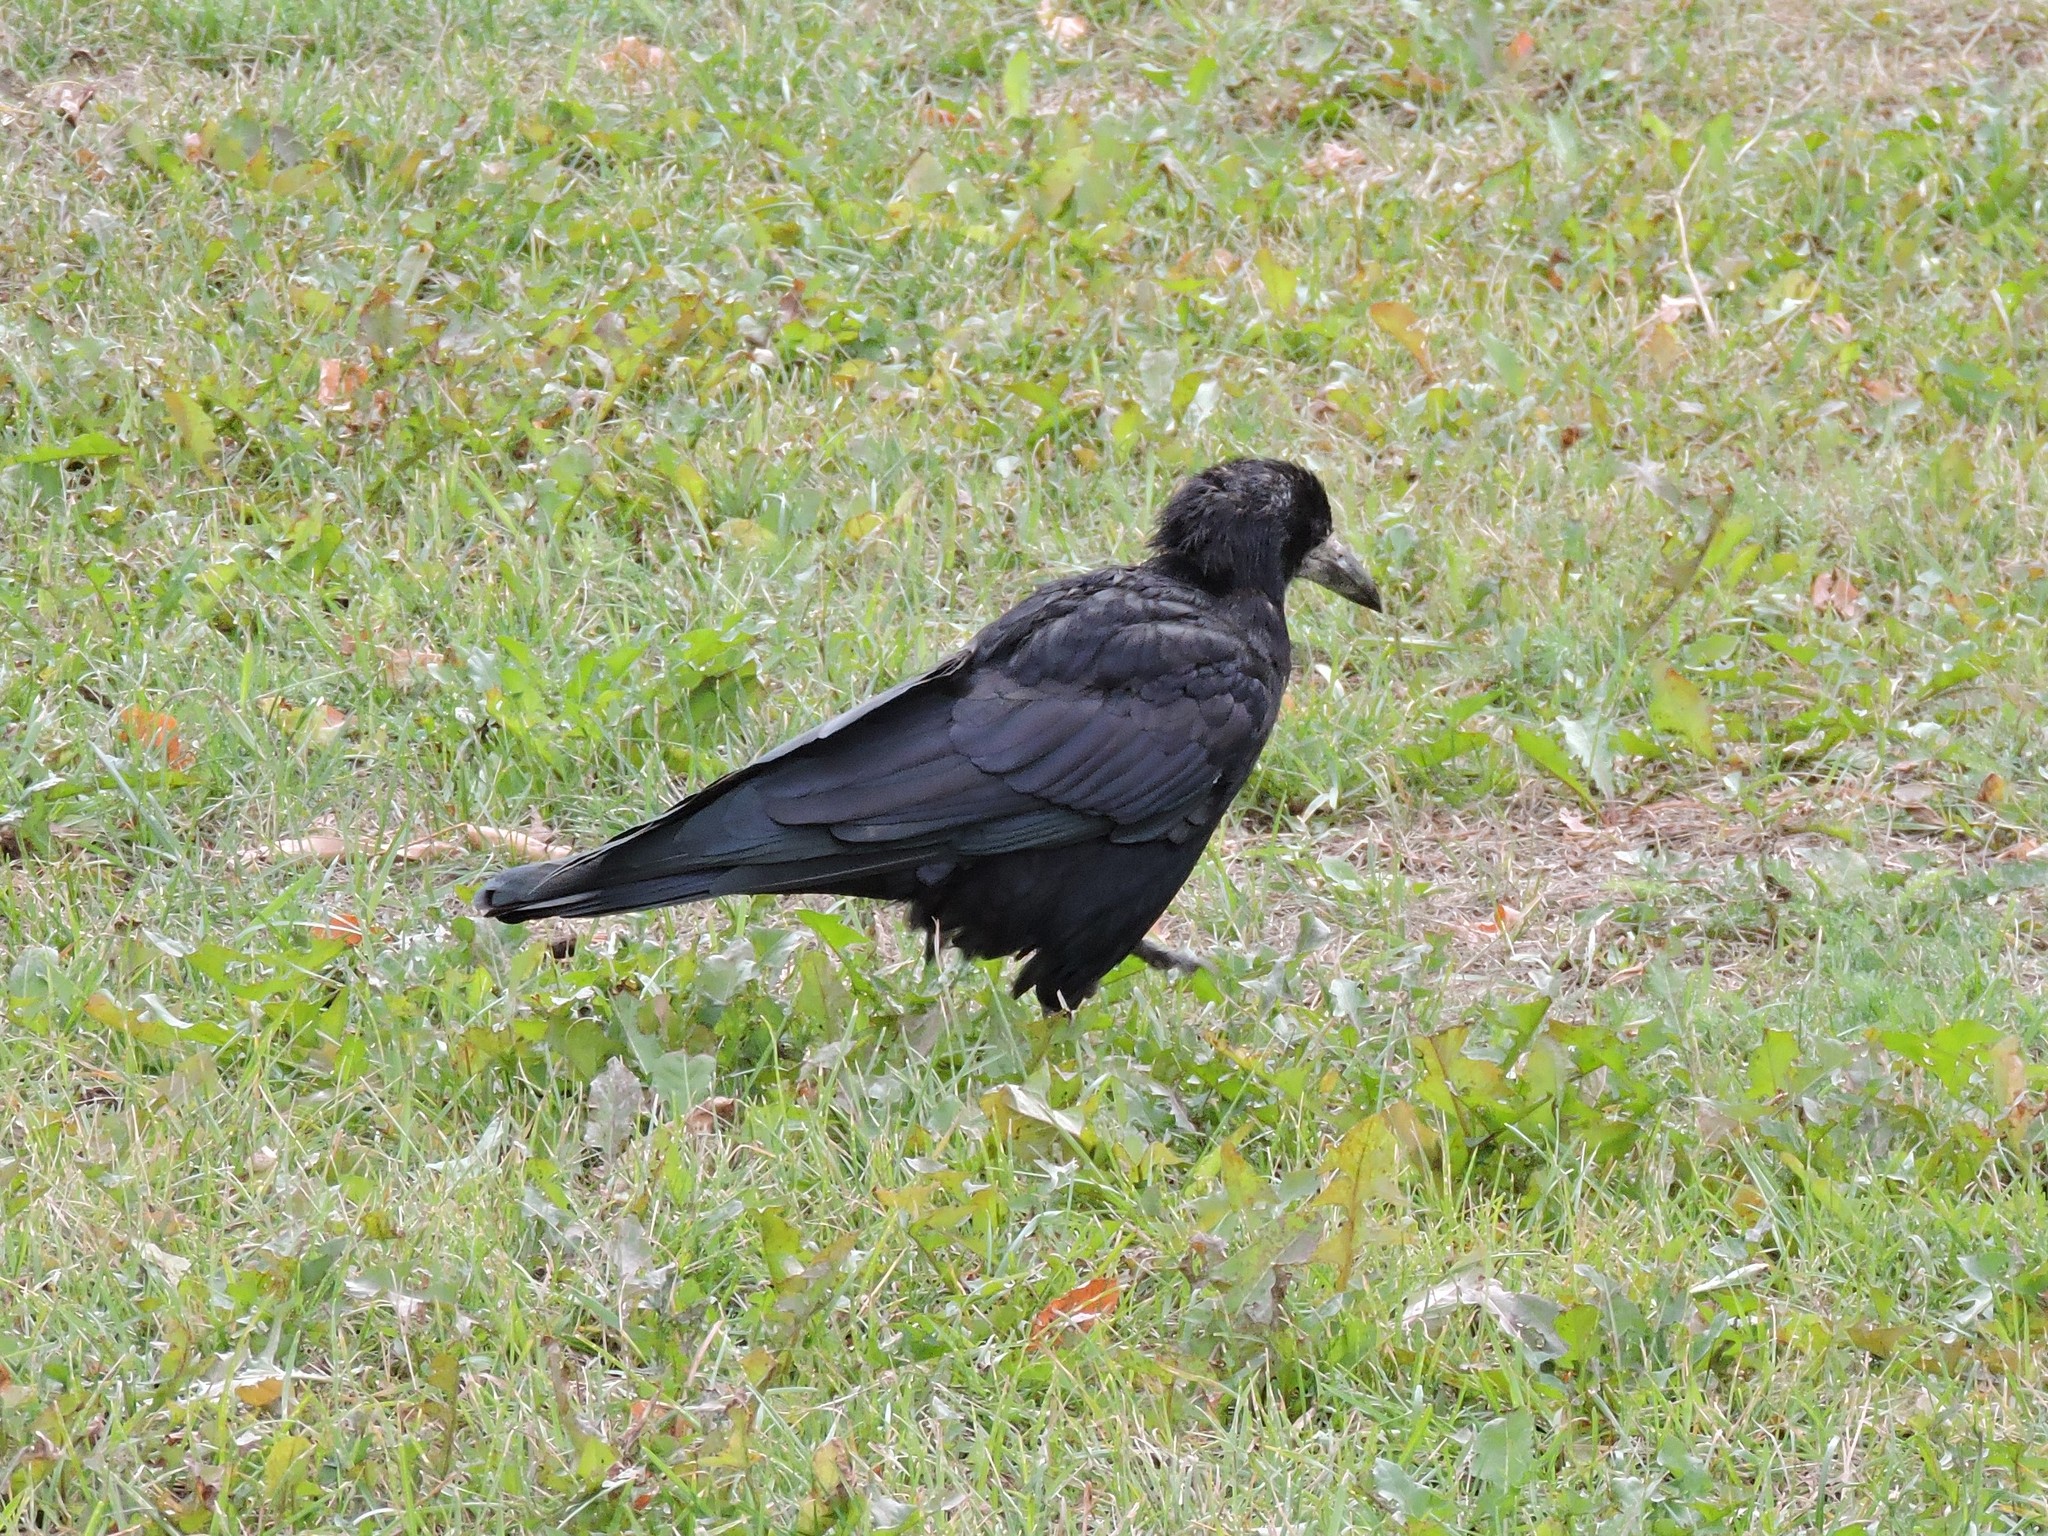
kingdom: Animalia
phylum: Chordata
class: Aves
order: Passeriformes
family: Corvidae
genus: Corvus
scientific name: Corvus frugilegus
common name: Rook
